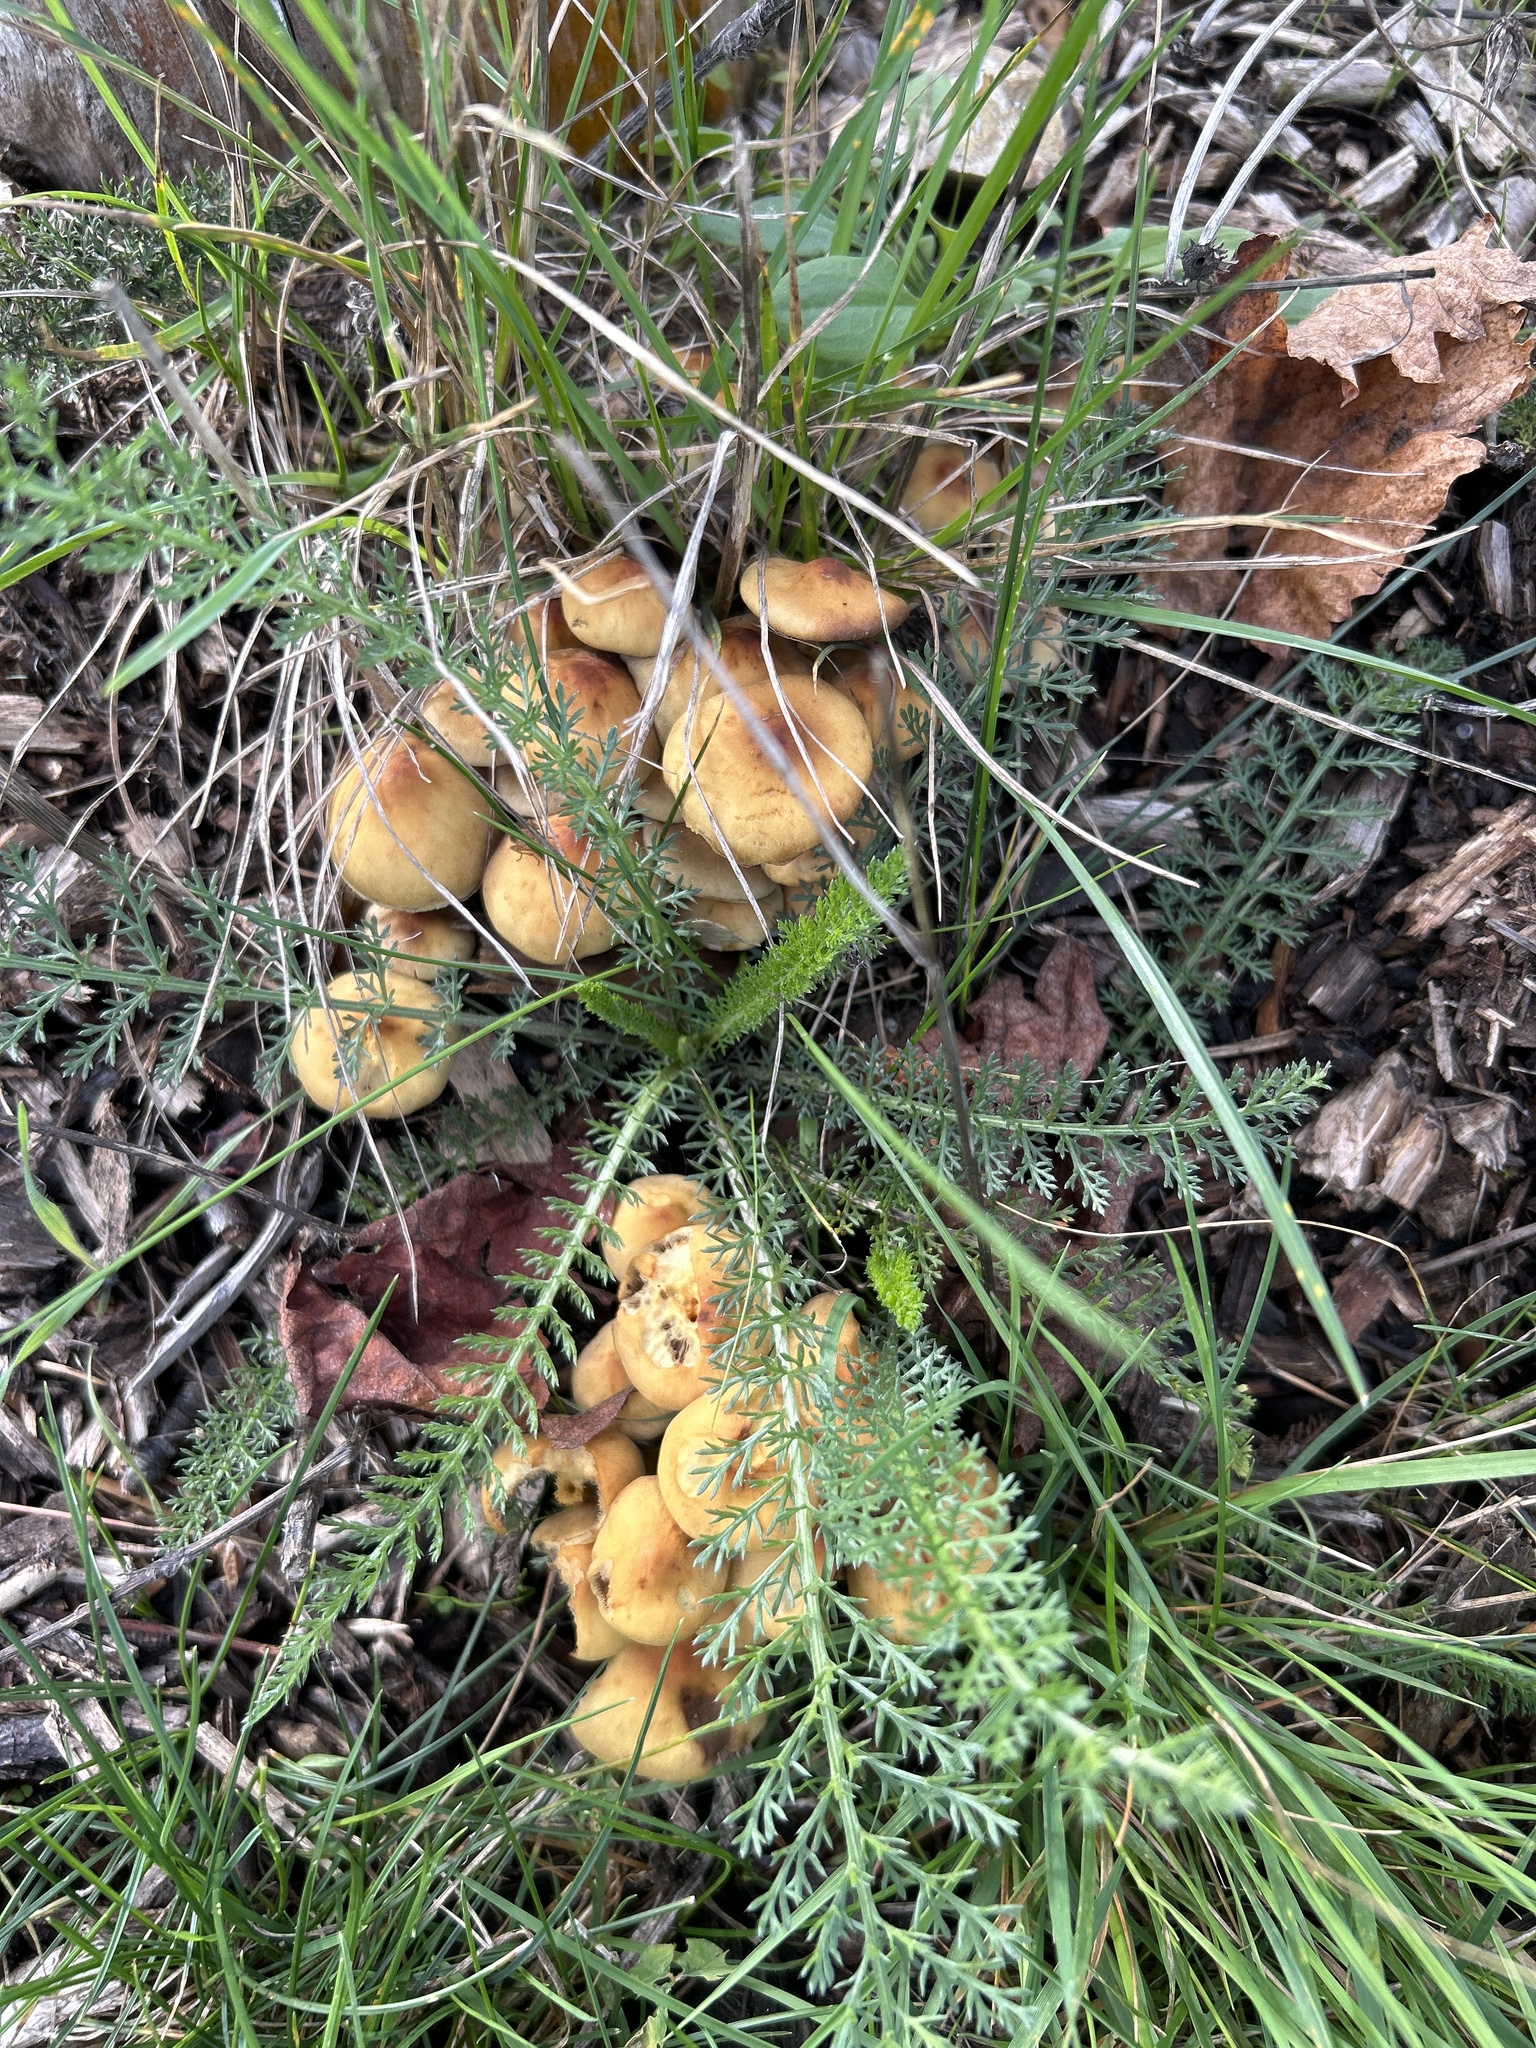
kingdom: Fungi
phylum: Basidiomycota
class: Agaricomycetes
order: Agaricales
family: Strophariaceae
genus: Hypholoma
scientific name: Hypholoma fasciculare
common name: Sulphur tuft
